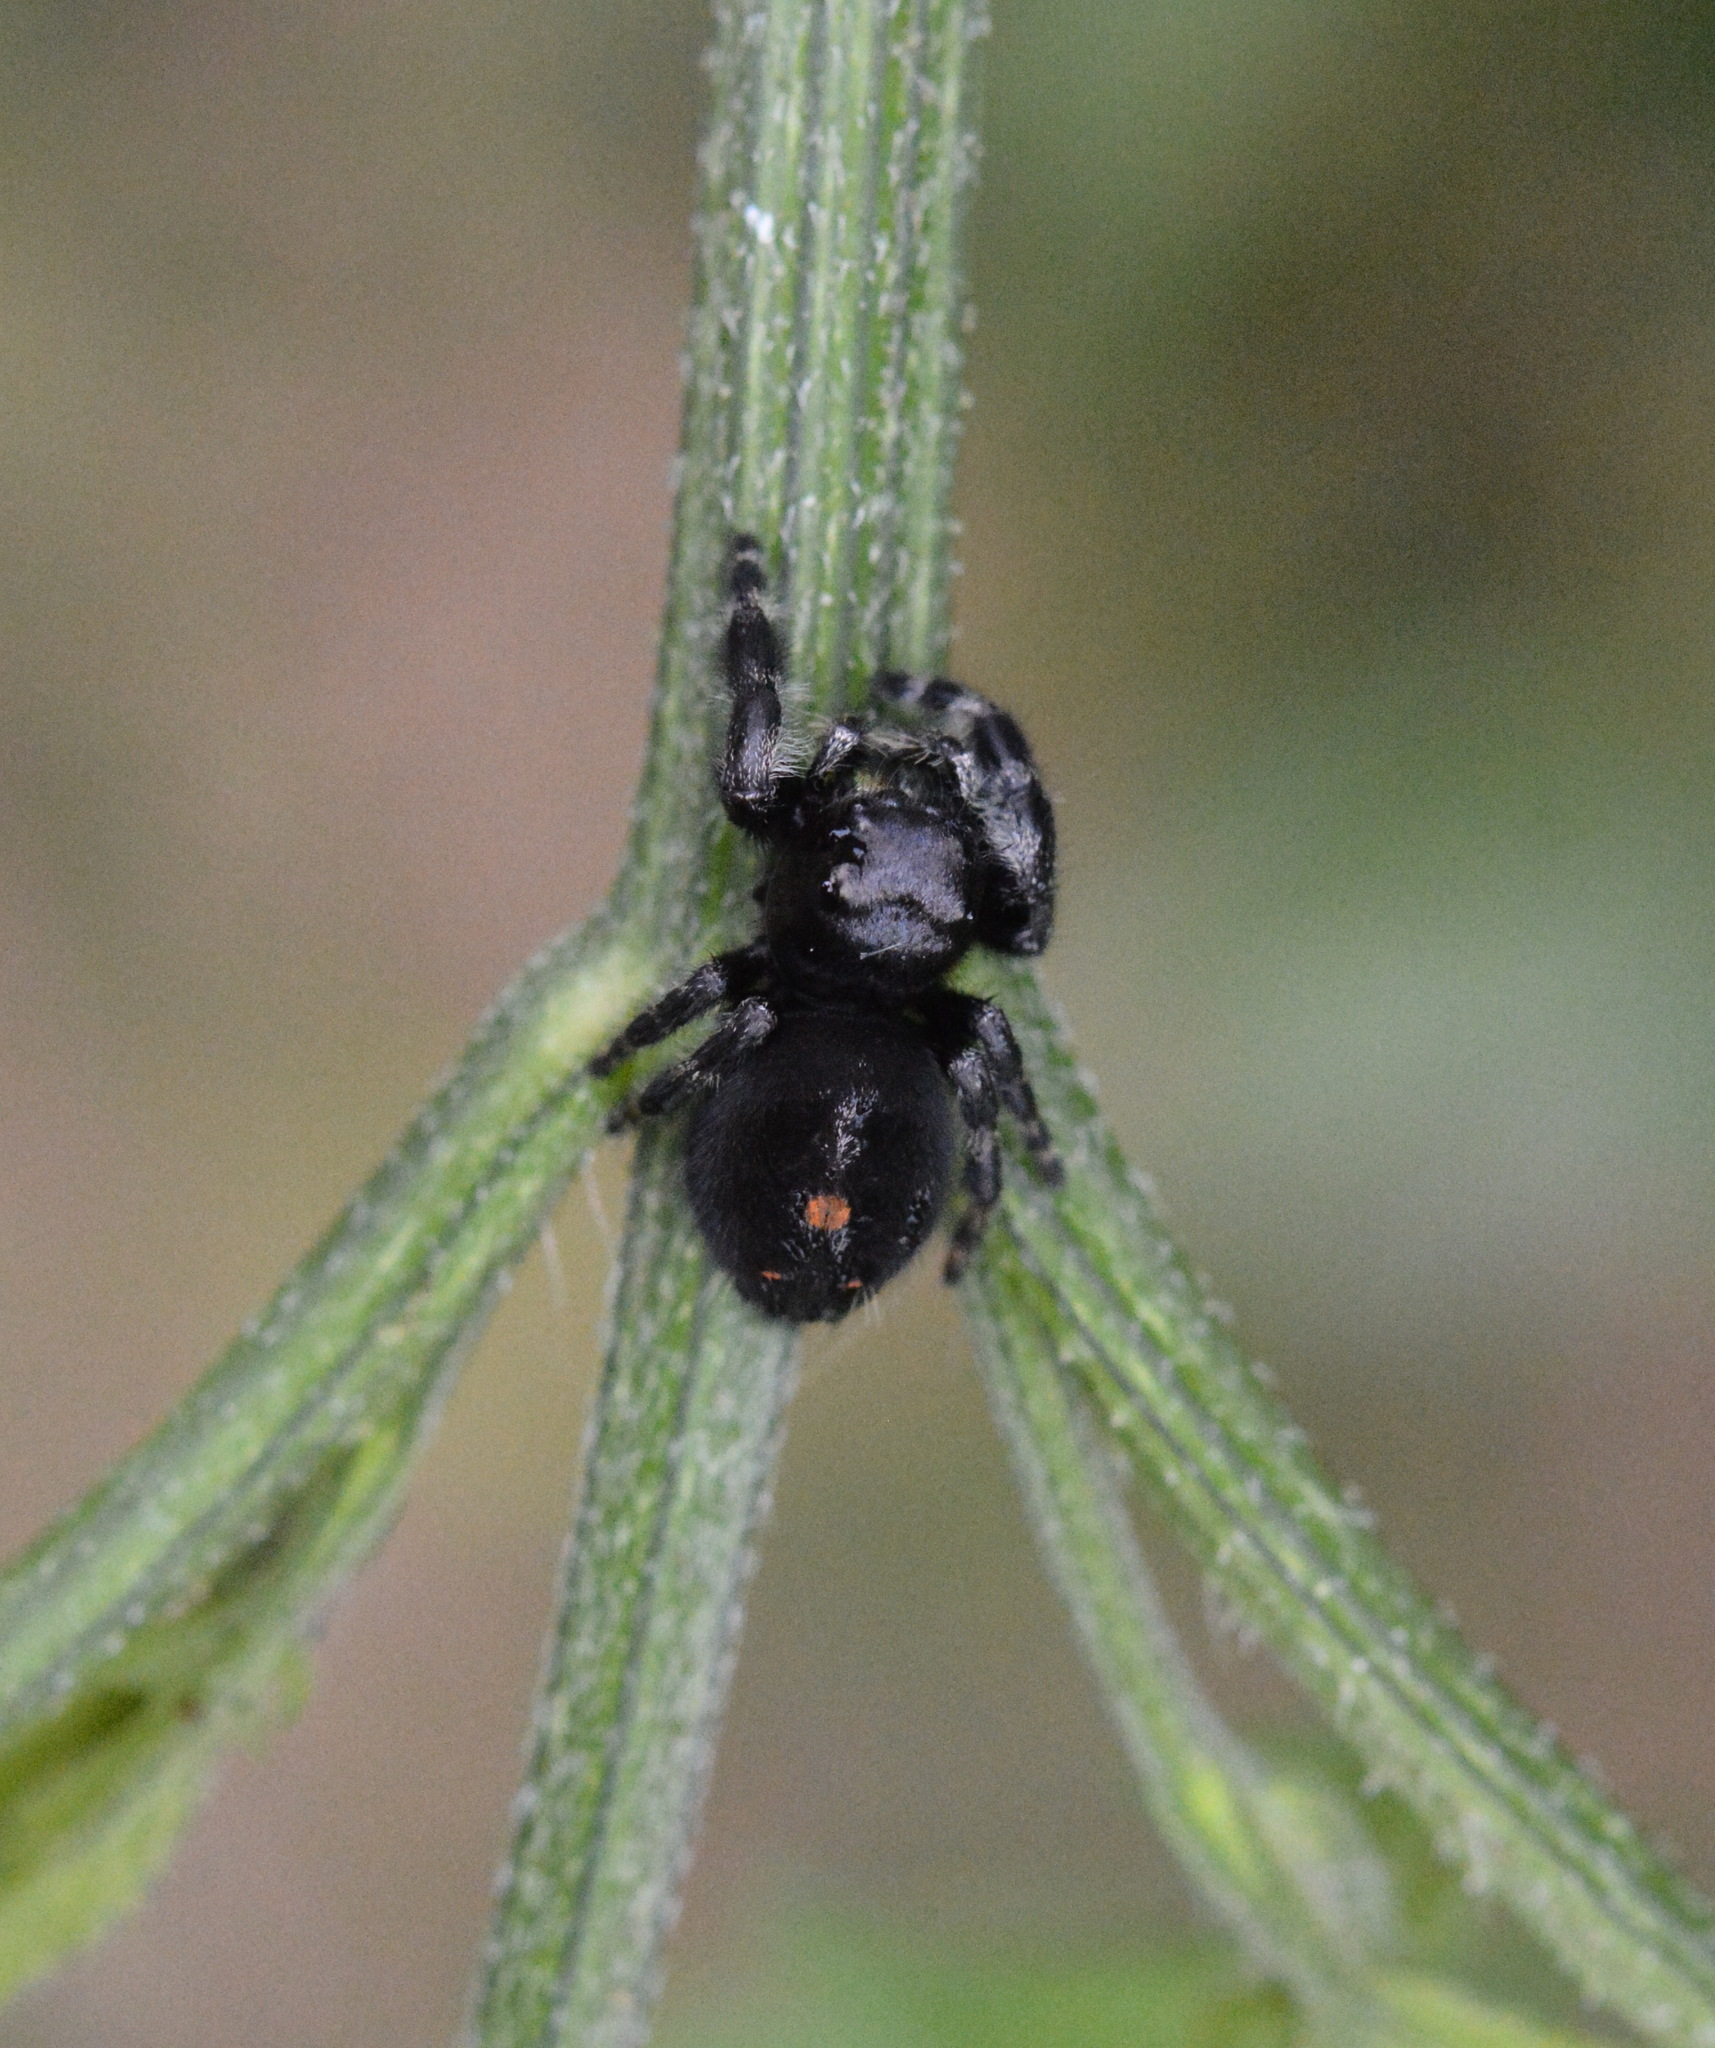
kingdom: Animalia
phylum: Arthropoda
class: Arachnida
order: Araneae
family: Salticidae
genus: Phidippus
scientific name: Phidippus audax
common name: Bold jumper
